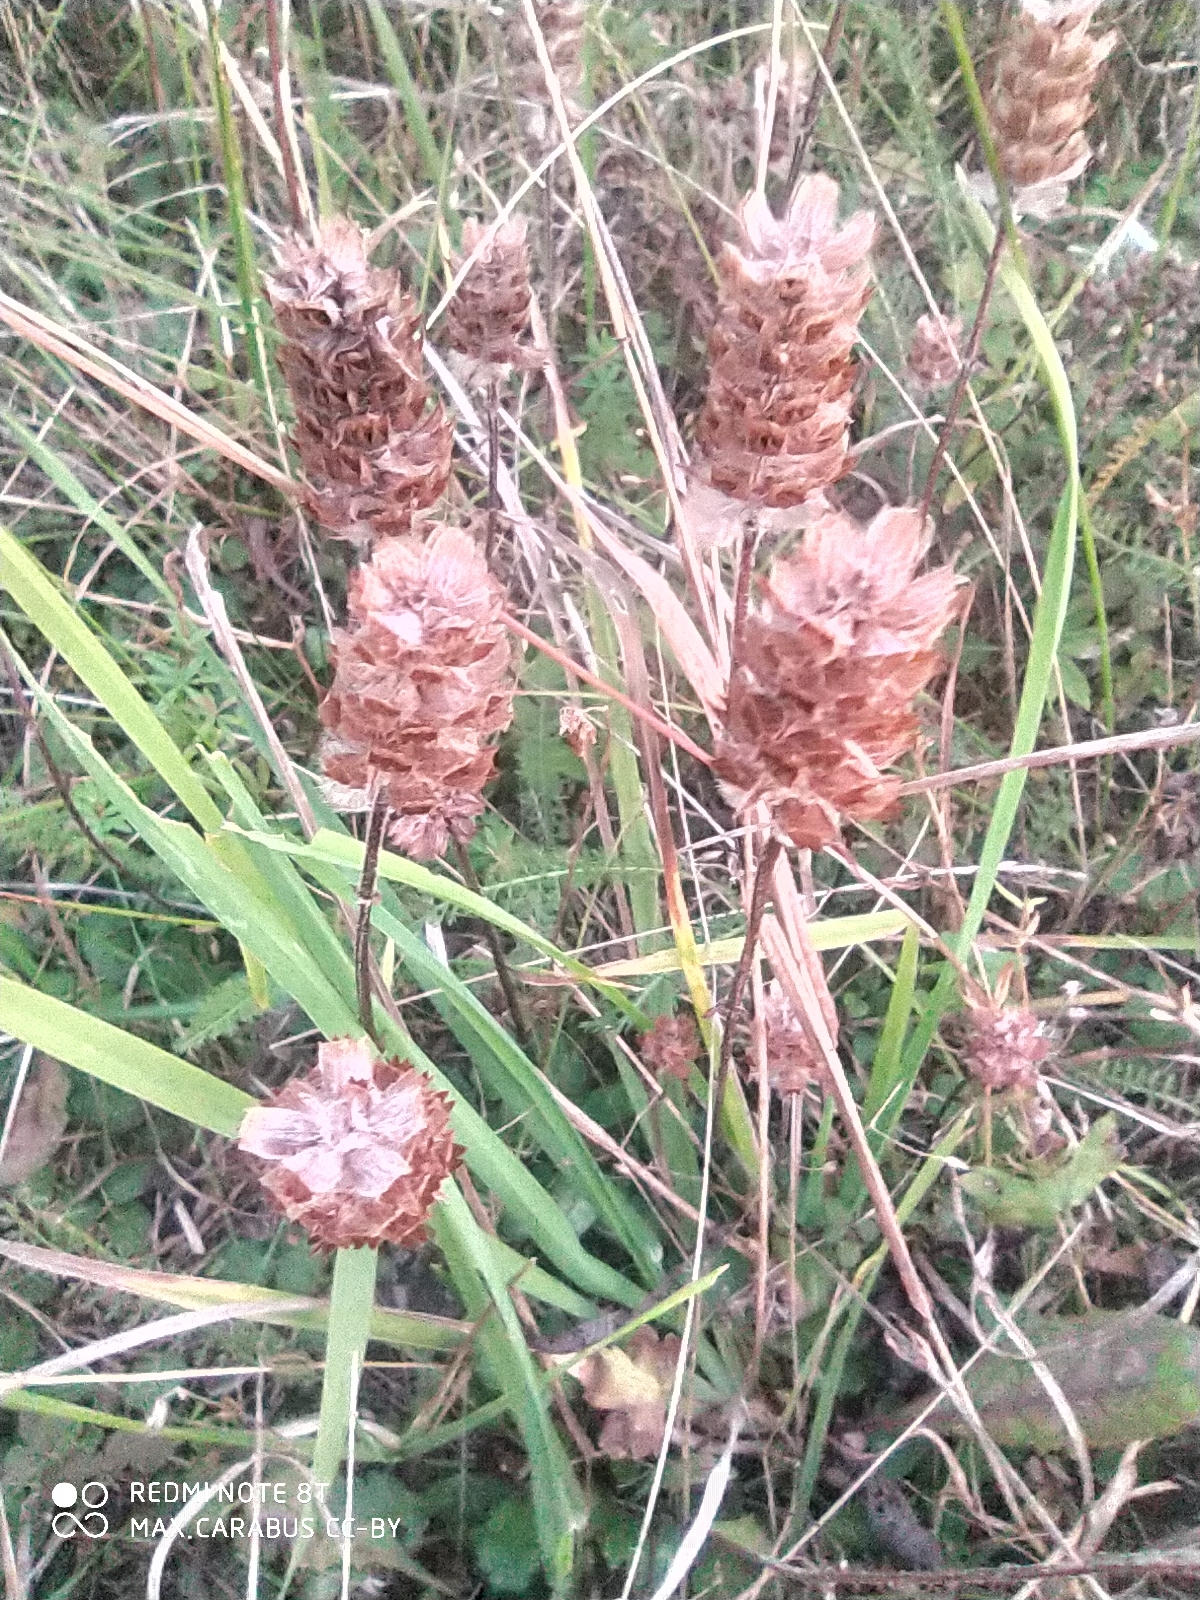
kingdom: Plantae
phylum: Tracheophyta
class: Magnoliopsida
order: Lamiales
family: Lamiaceae
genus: Prunella
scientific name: Prunella vulgaris
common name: Heal-all
